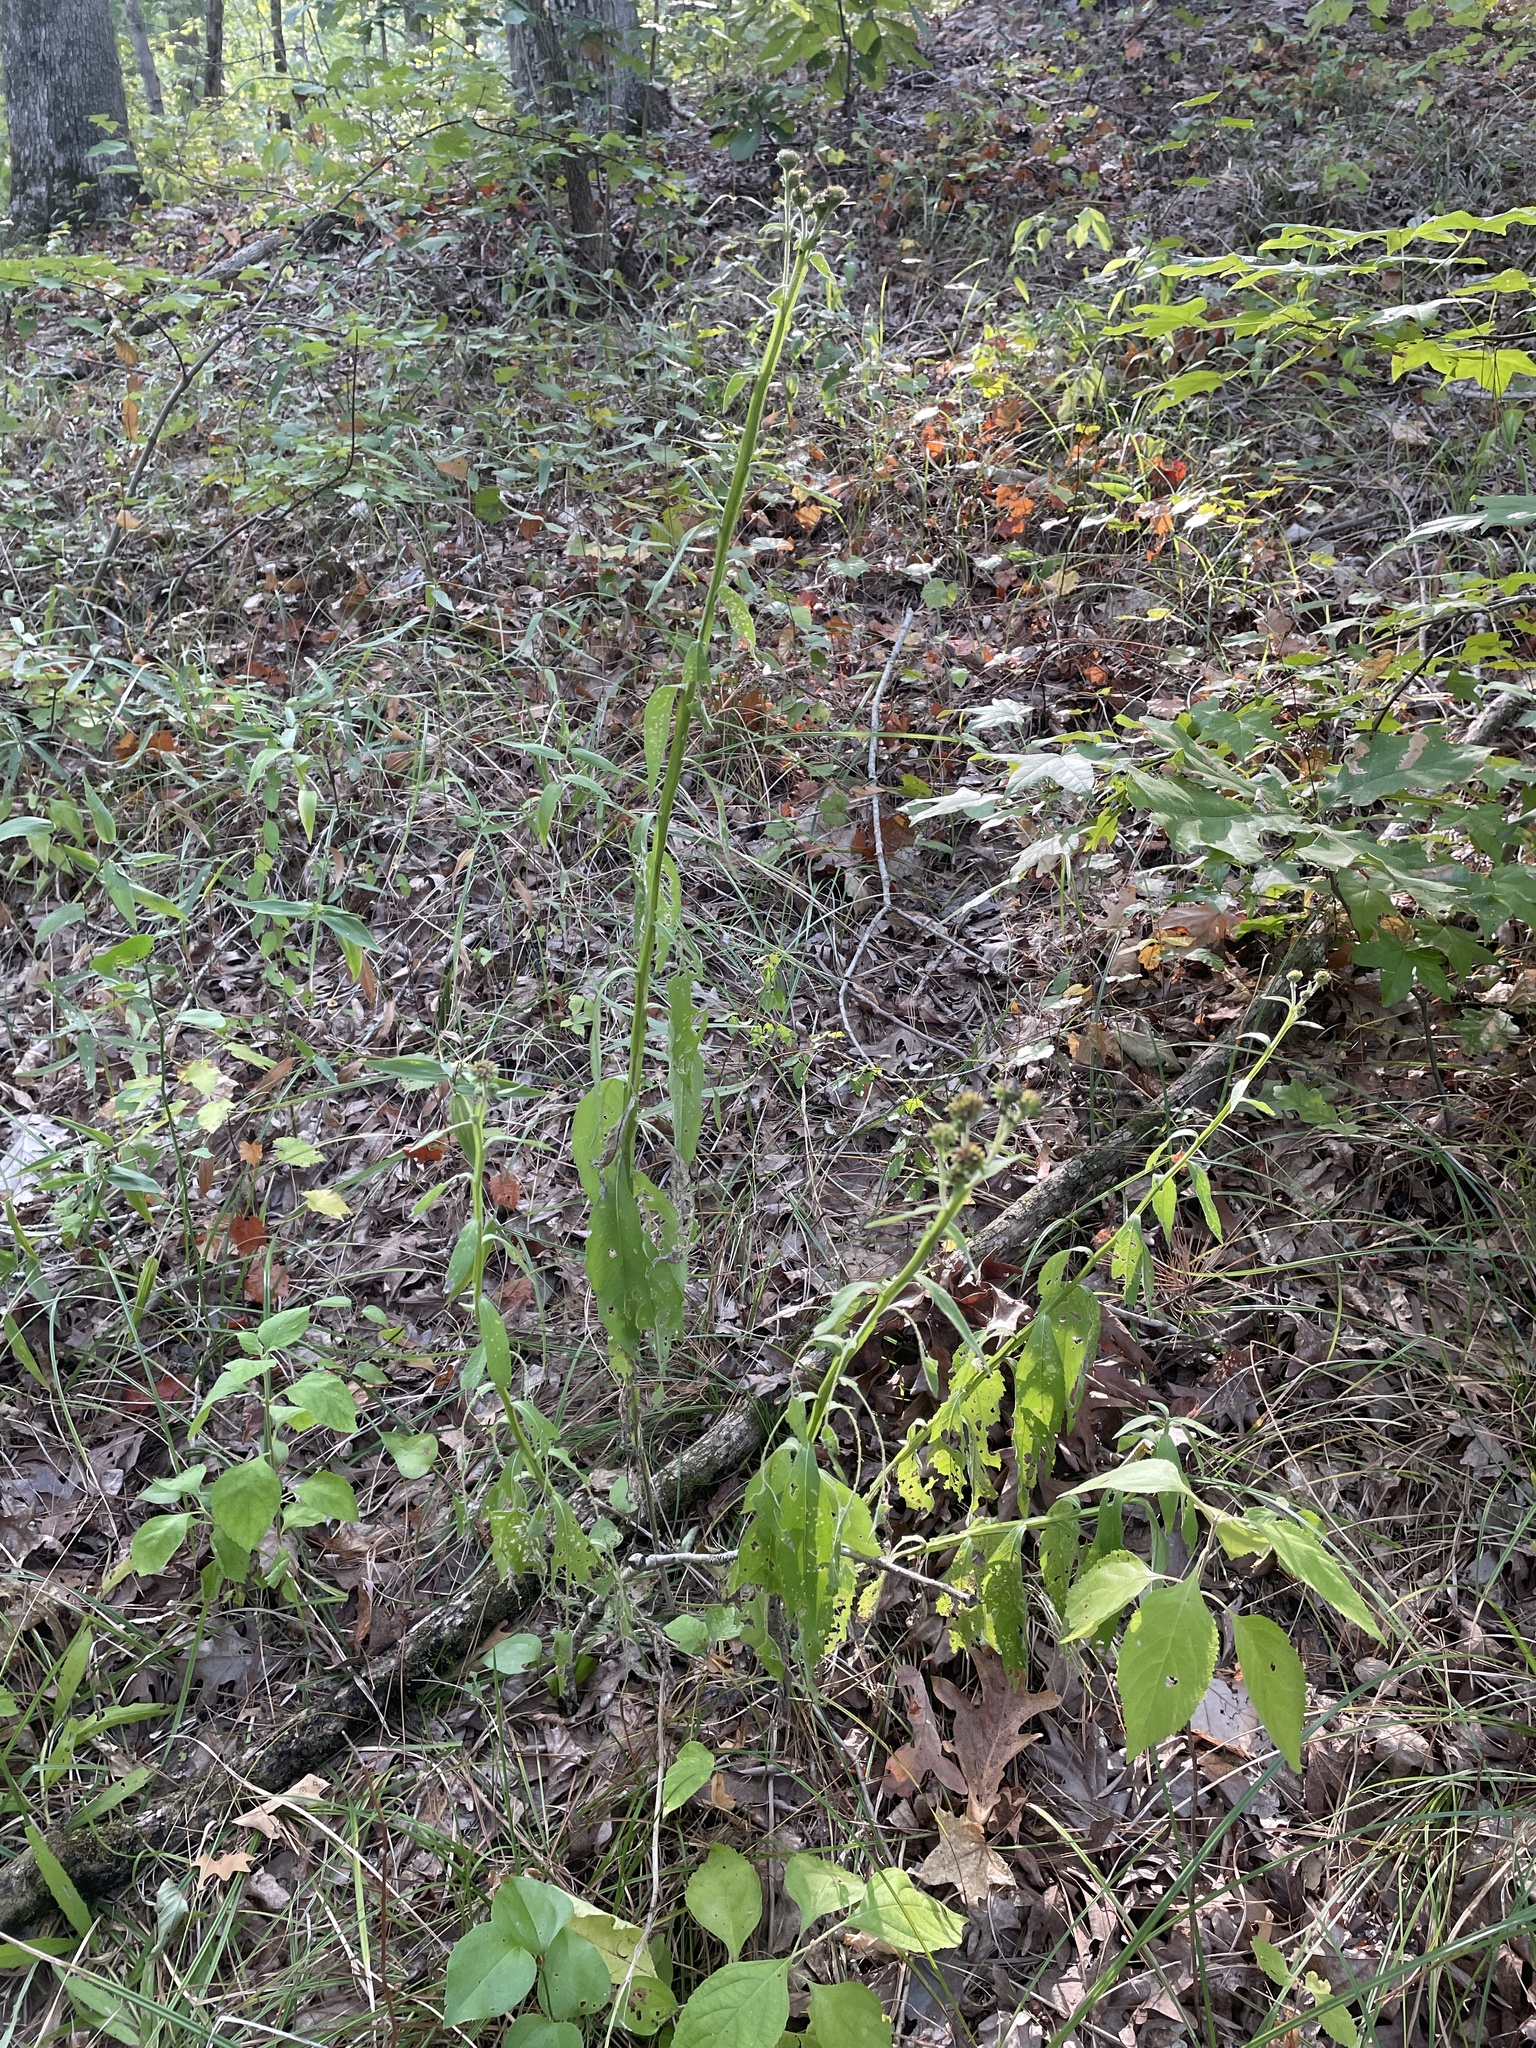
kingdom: Plantae
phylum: Tracheophyta
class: Magnoliopsida
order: Asterales
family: Asteraceae
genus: Verbesina
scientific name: Verbesina helianthoides
